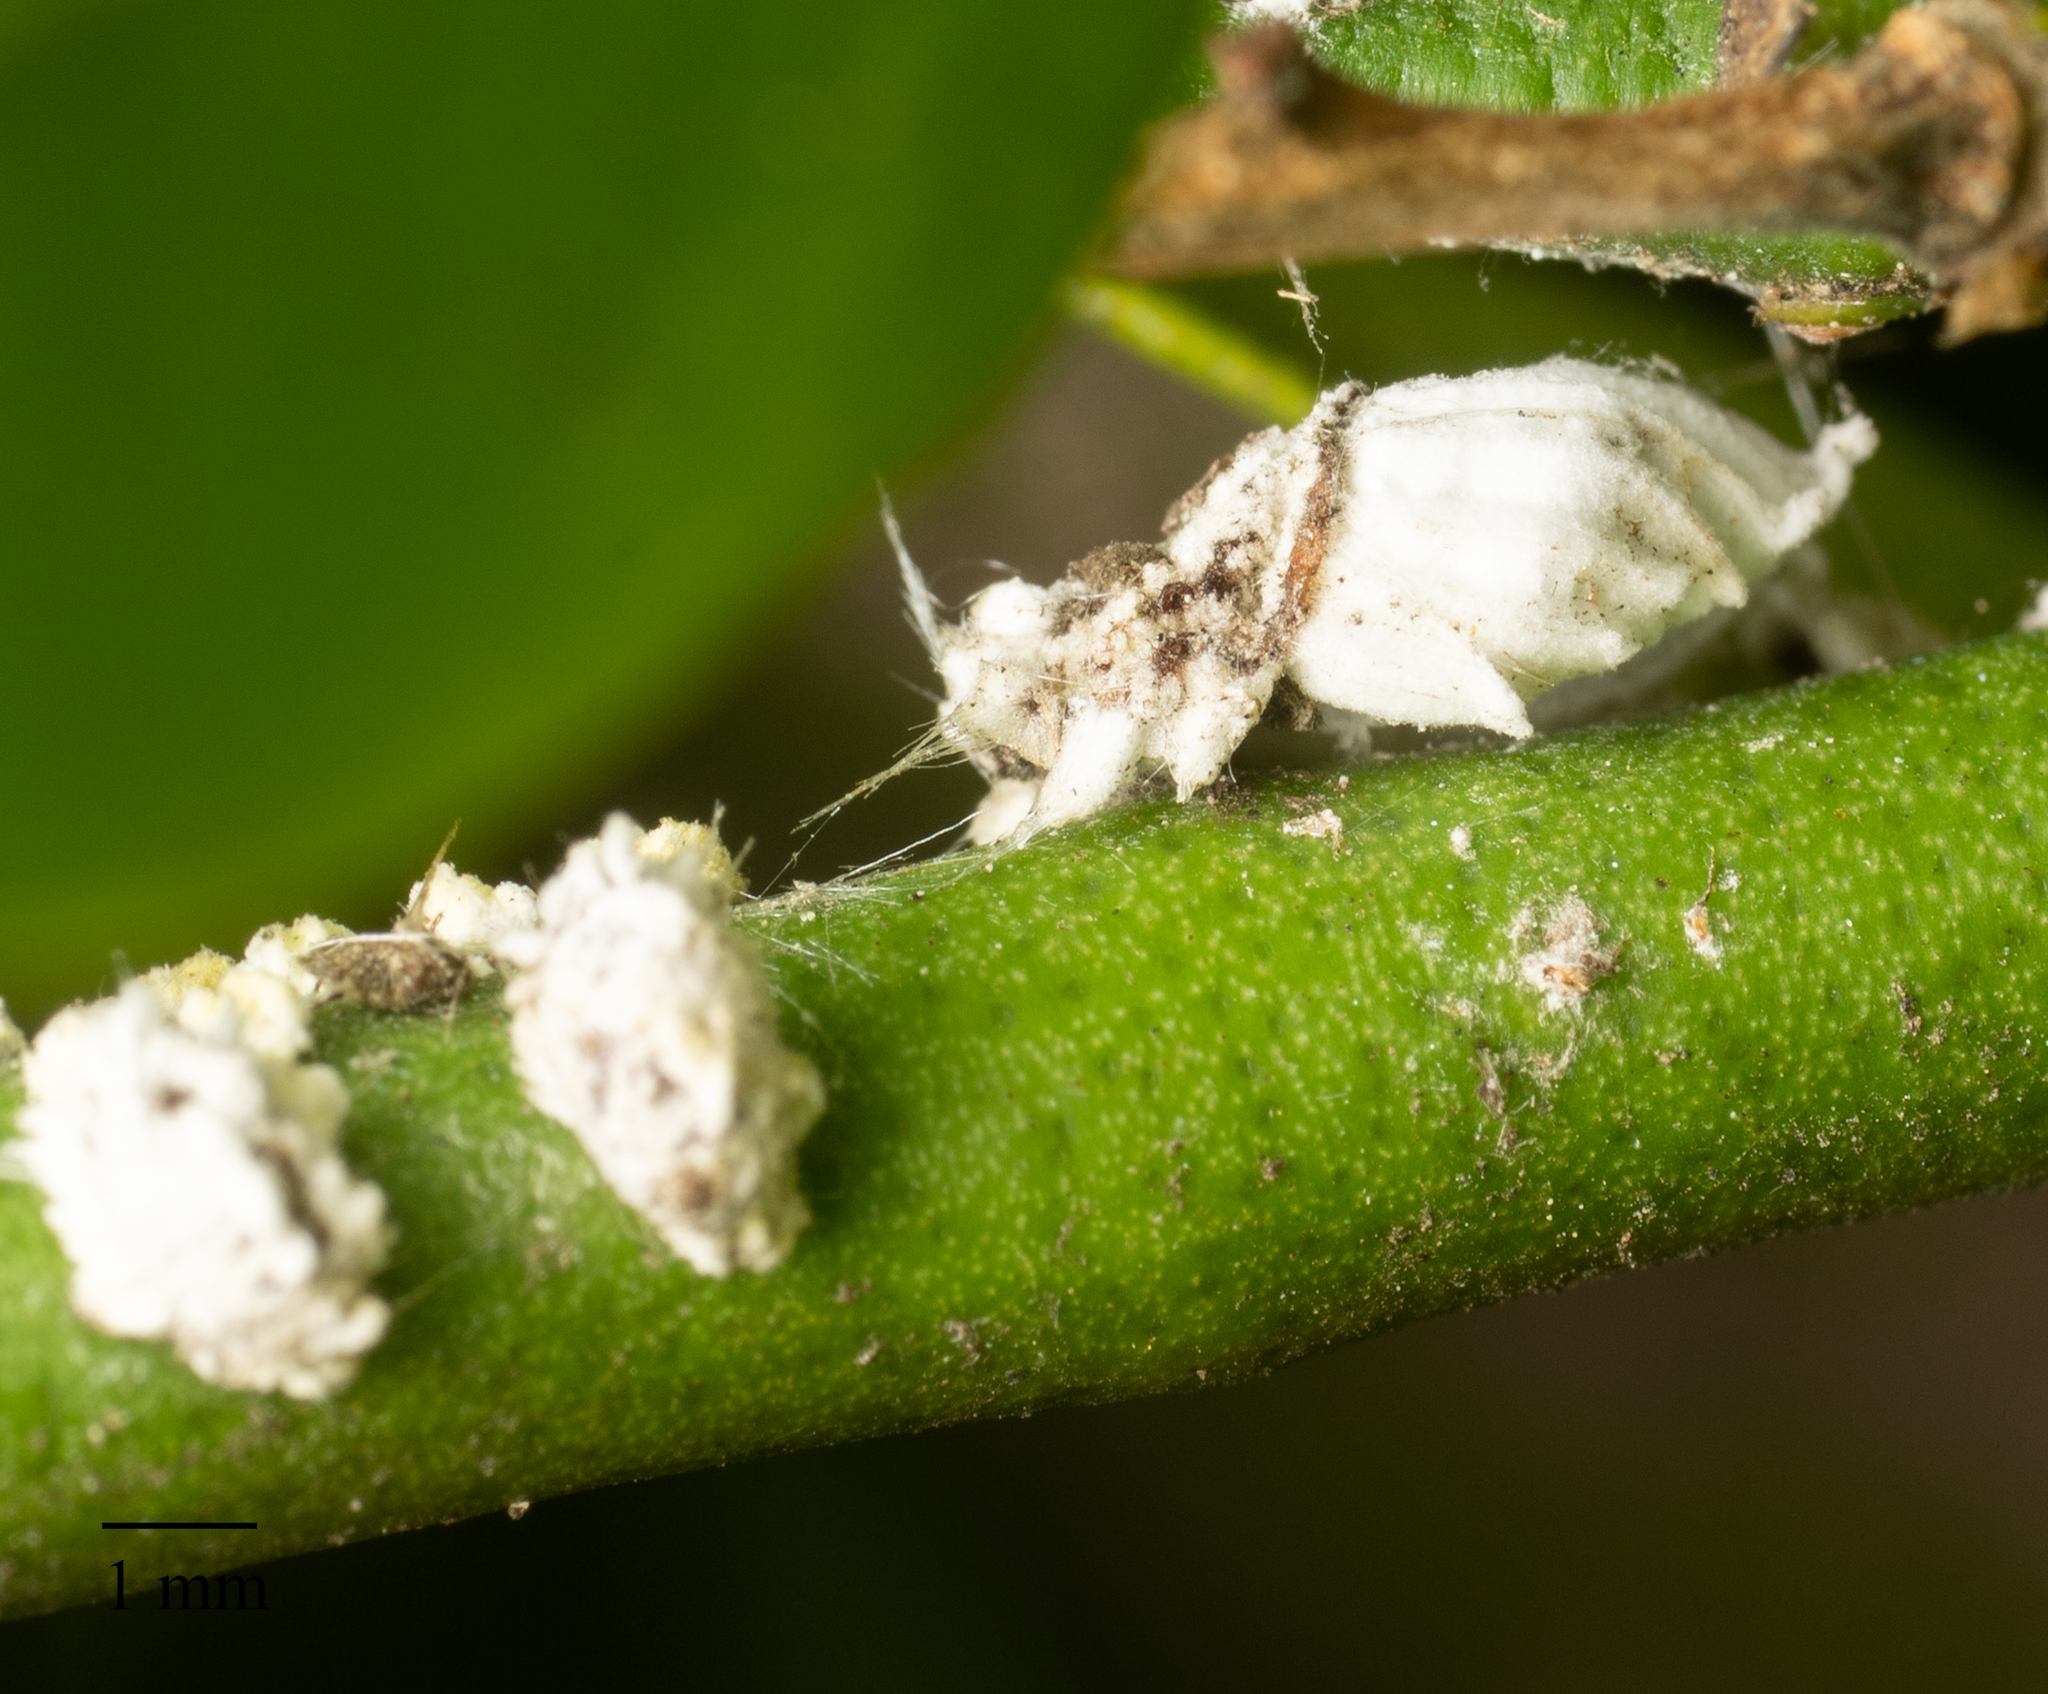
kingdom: Animalia
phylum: Arthropoda
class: Insecta
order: Hemiptera
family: Margarodidae
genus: Icerya
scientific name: Icerya purchasi
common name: Cottony cushion scale
